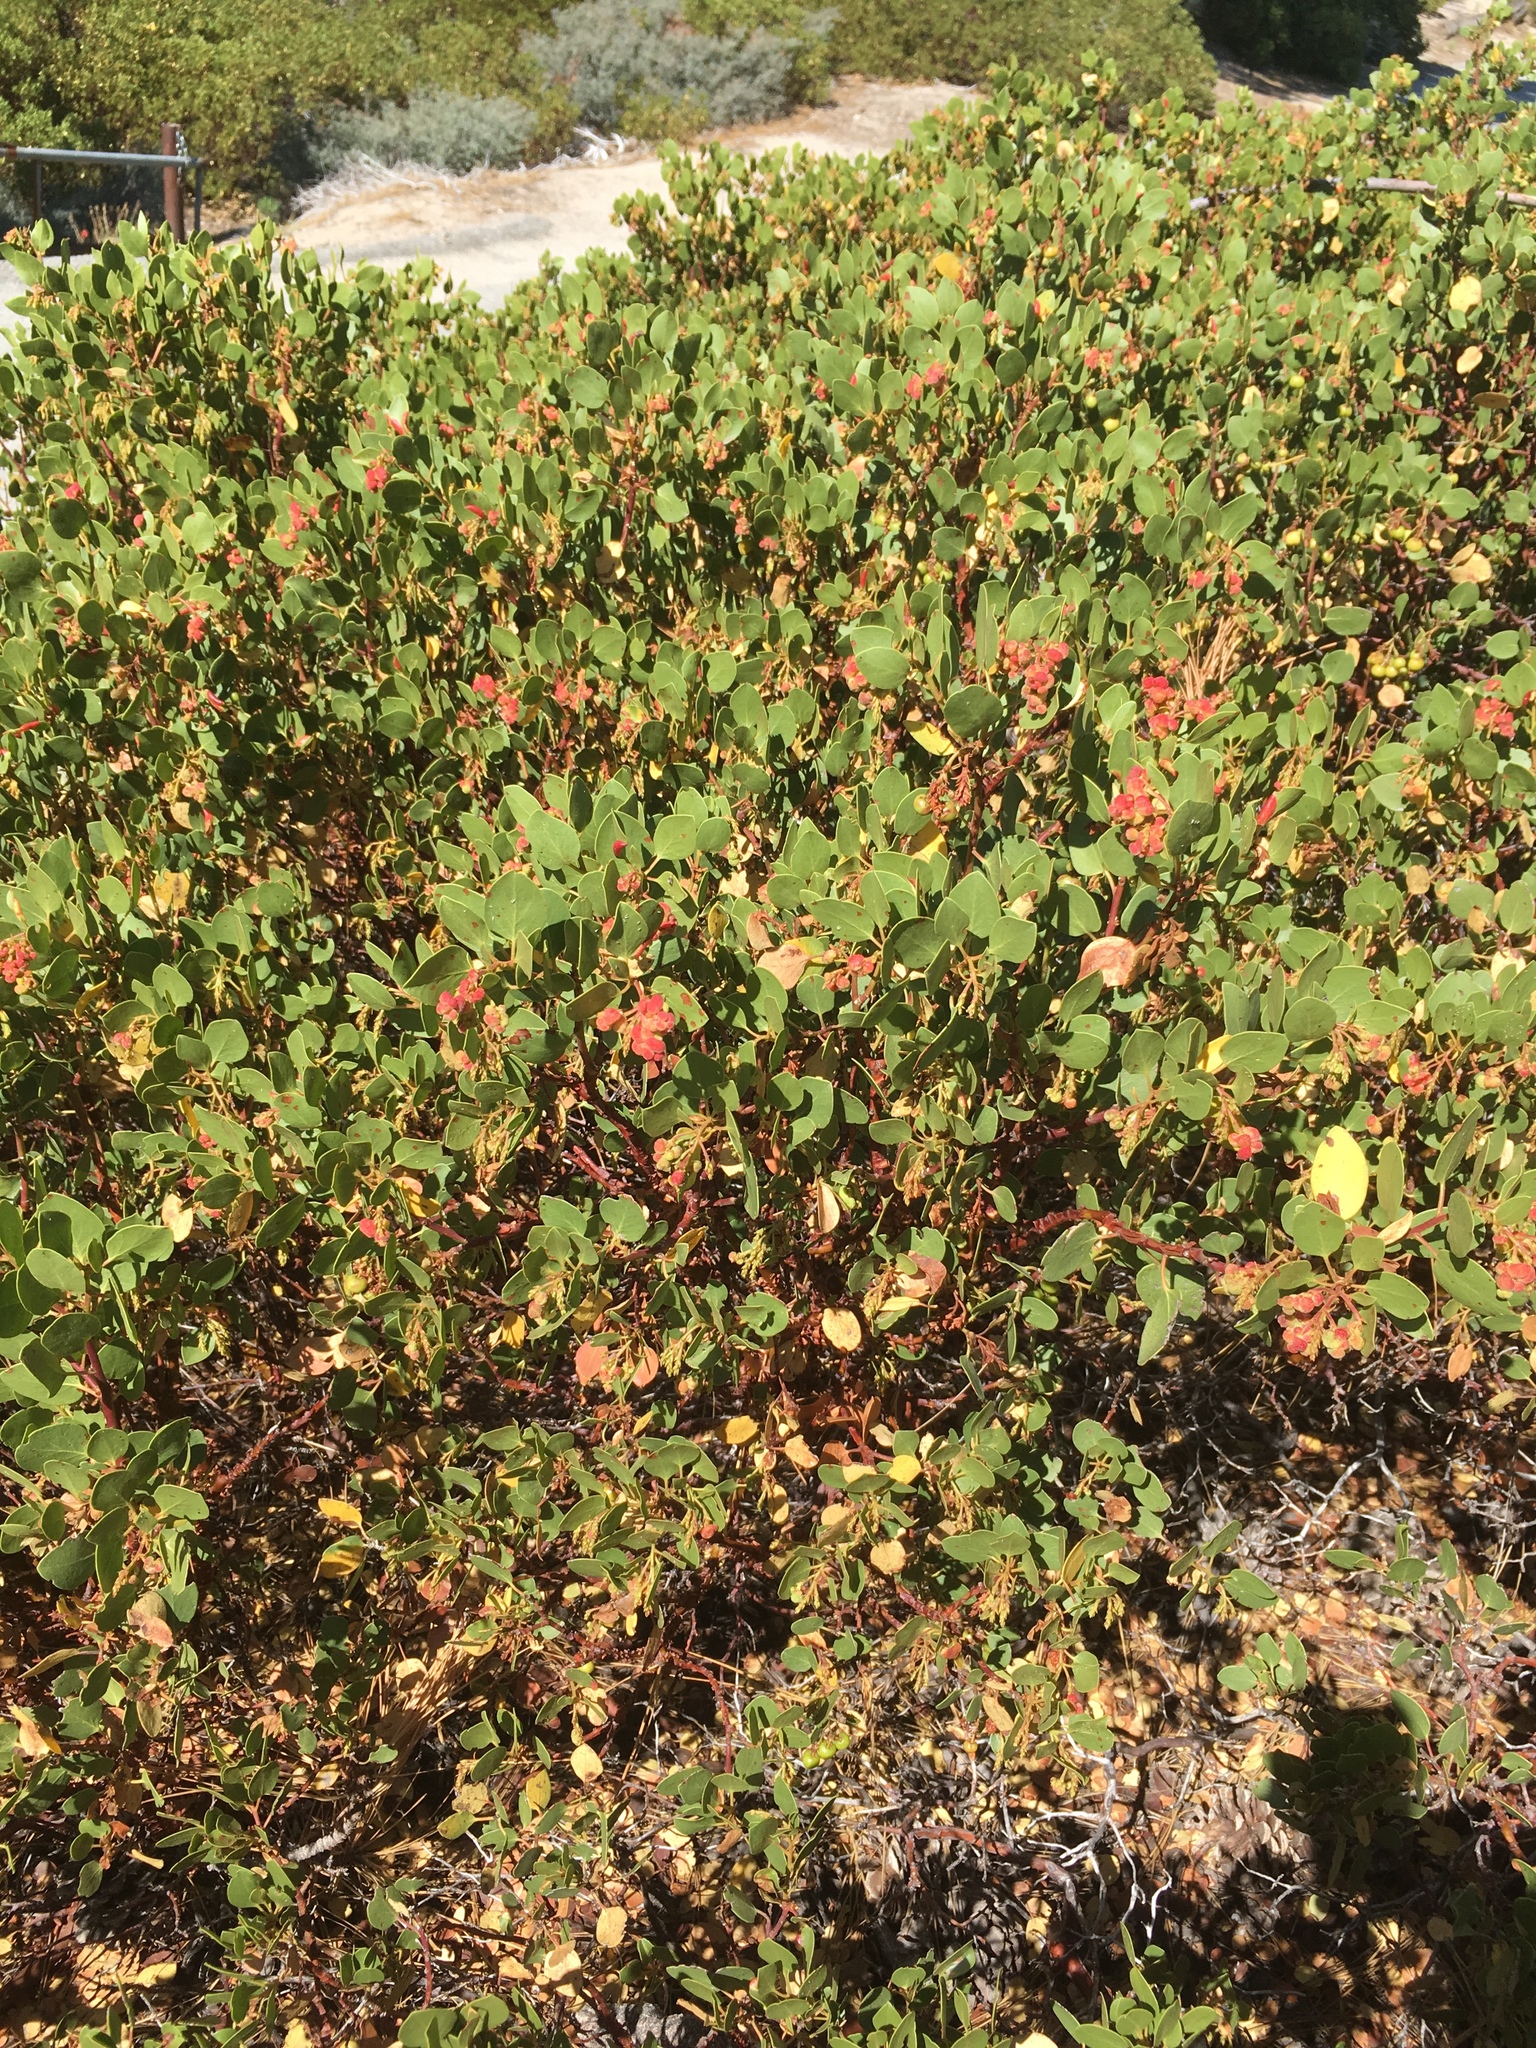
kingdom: Plantae
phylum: Tracheophyta
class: Magnoliopsida
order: Ericales
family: Ericaceae
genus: Arctostaphylos
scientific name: Arctostaphylos patula
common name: Green-leaf manzanita
